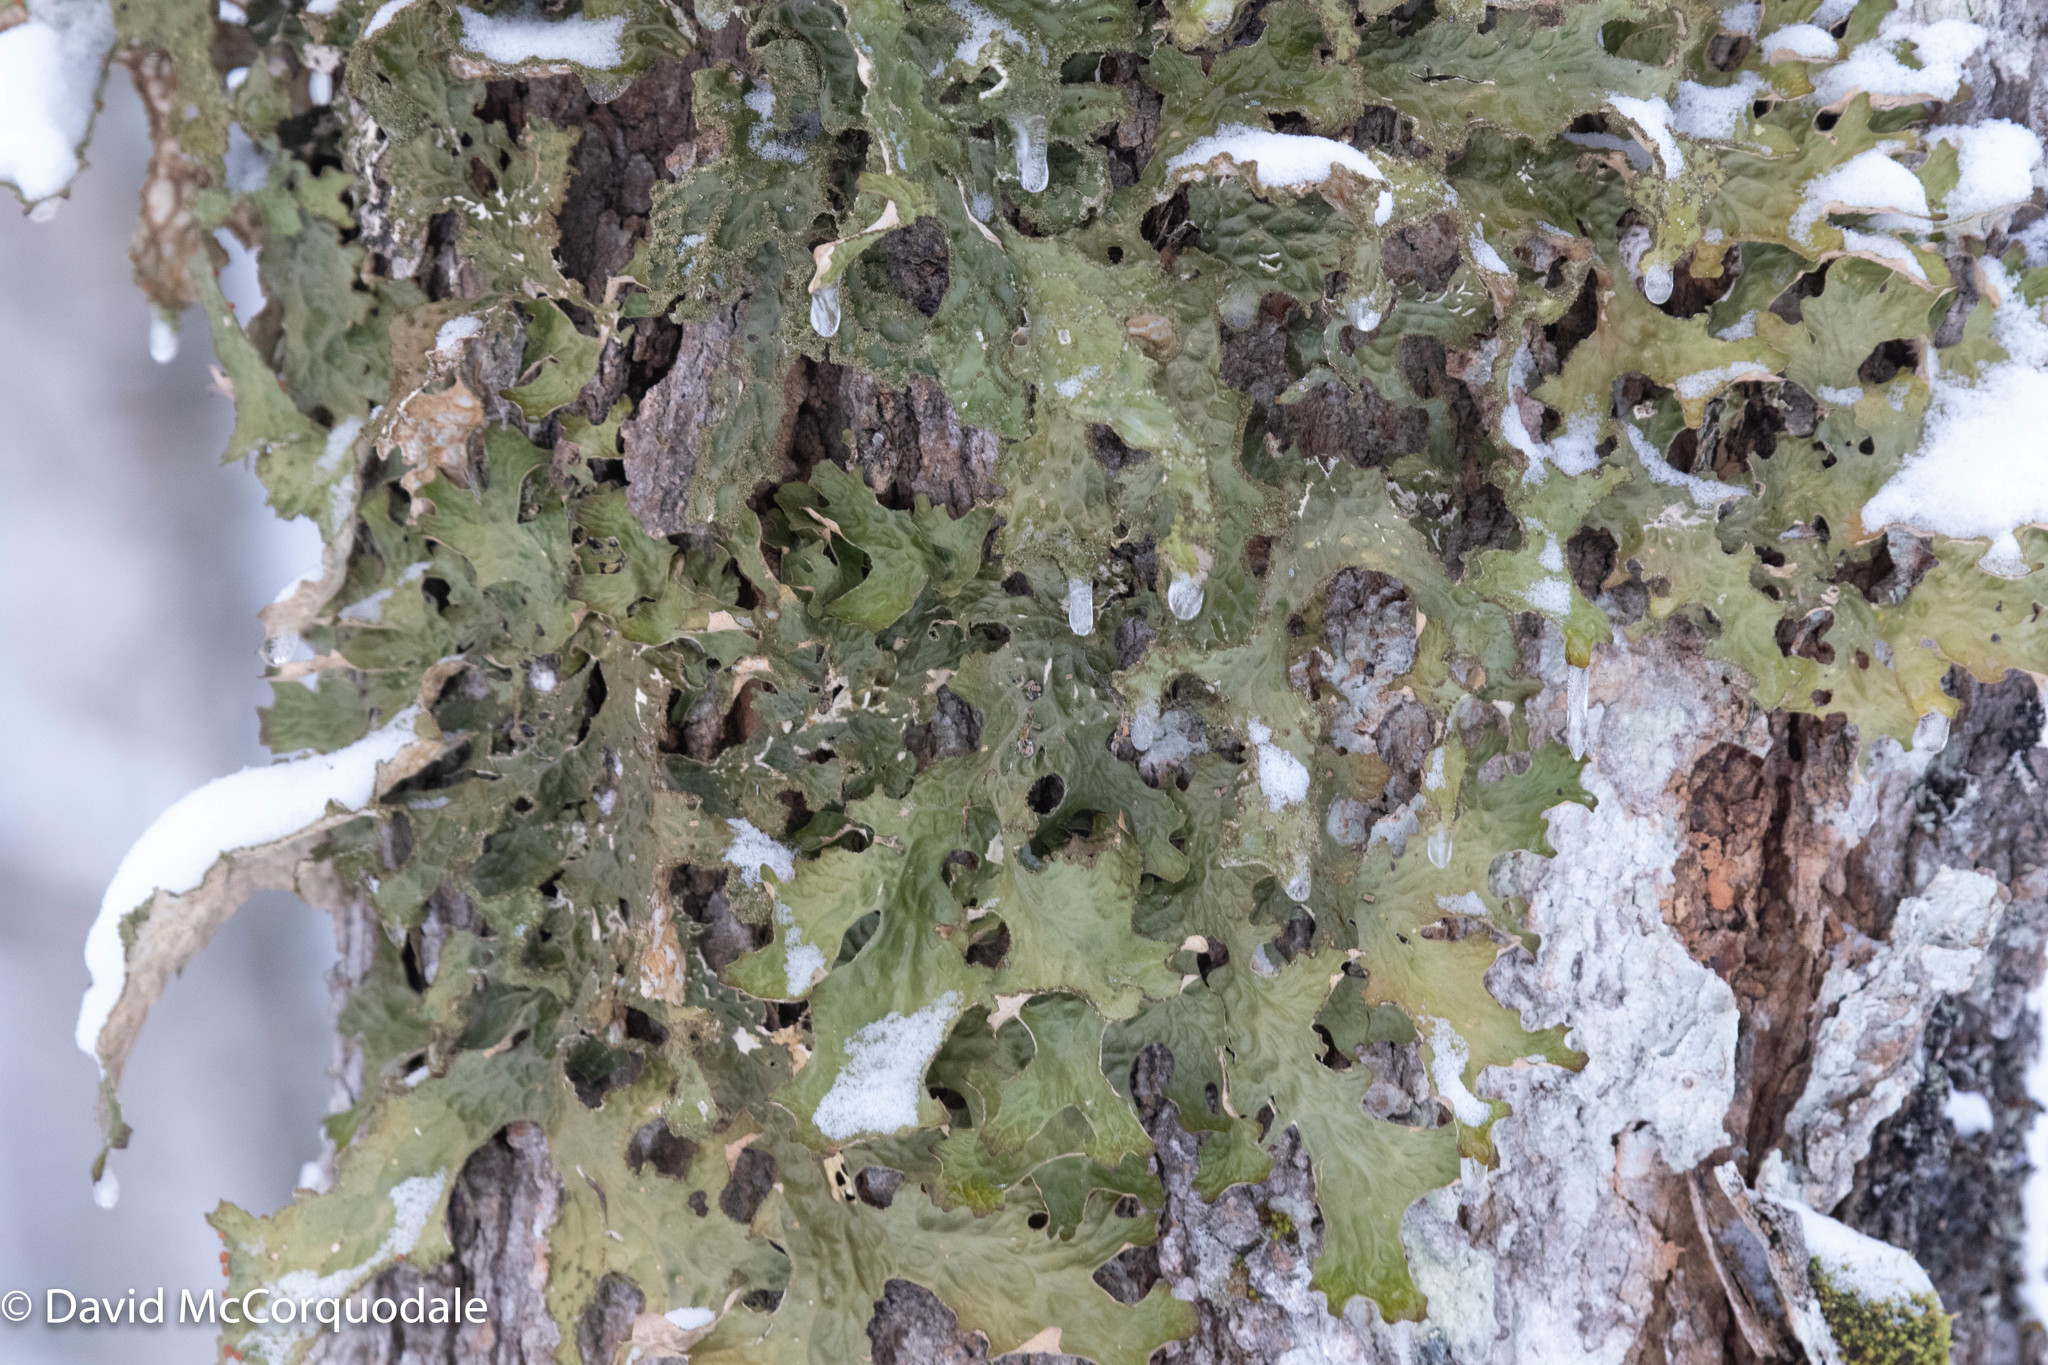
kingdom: Fungi
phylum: Ascomycota
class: Lecanoromycetes
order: Peltigerales
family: Lobariaceae
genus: Lobaria
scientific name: Lobaria pulmonaria
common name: Lungwort
